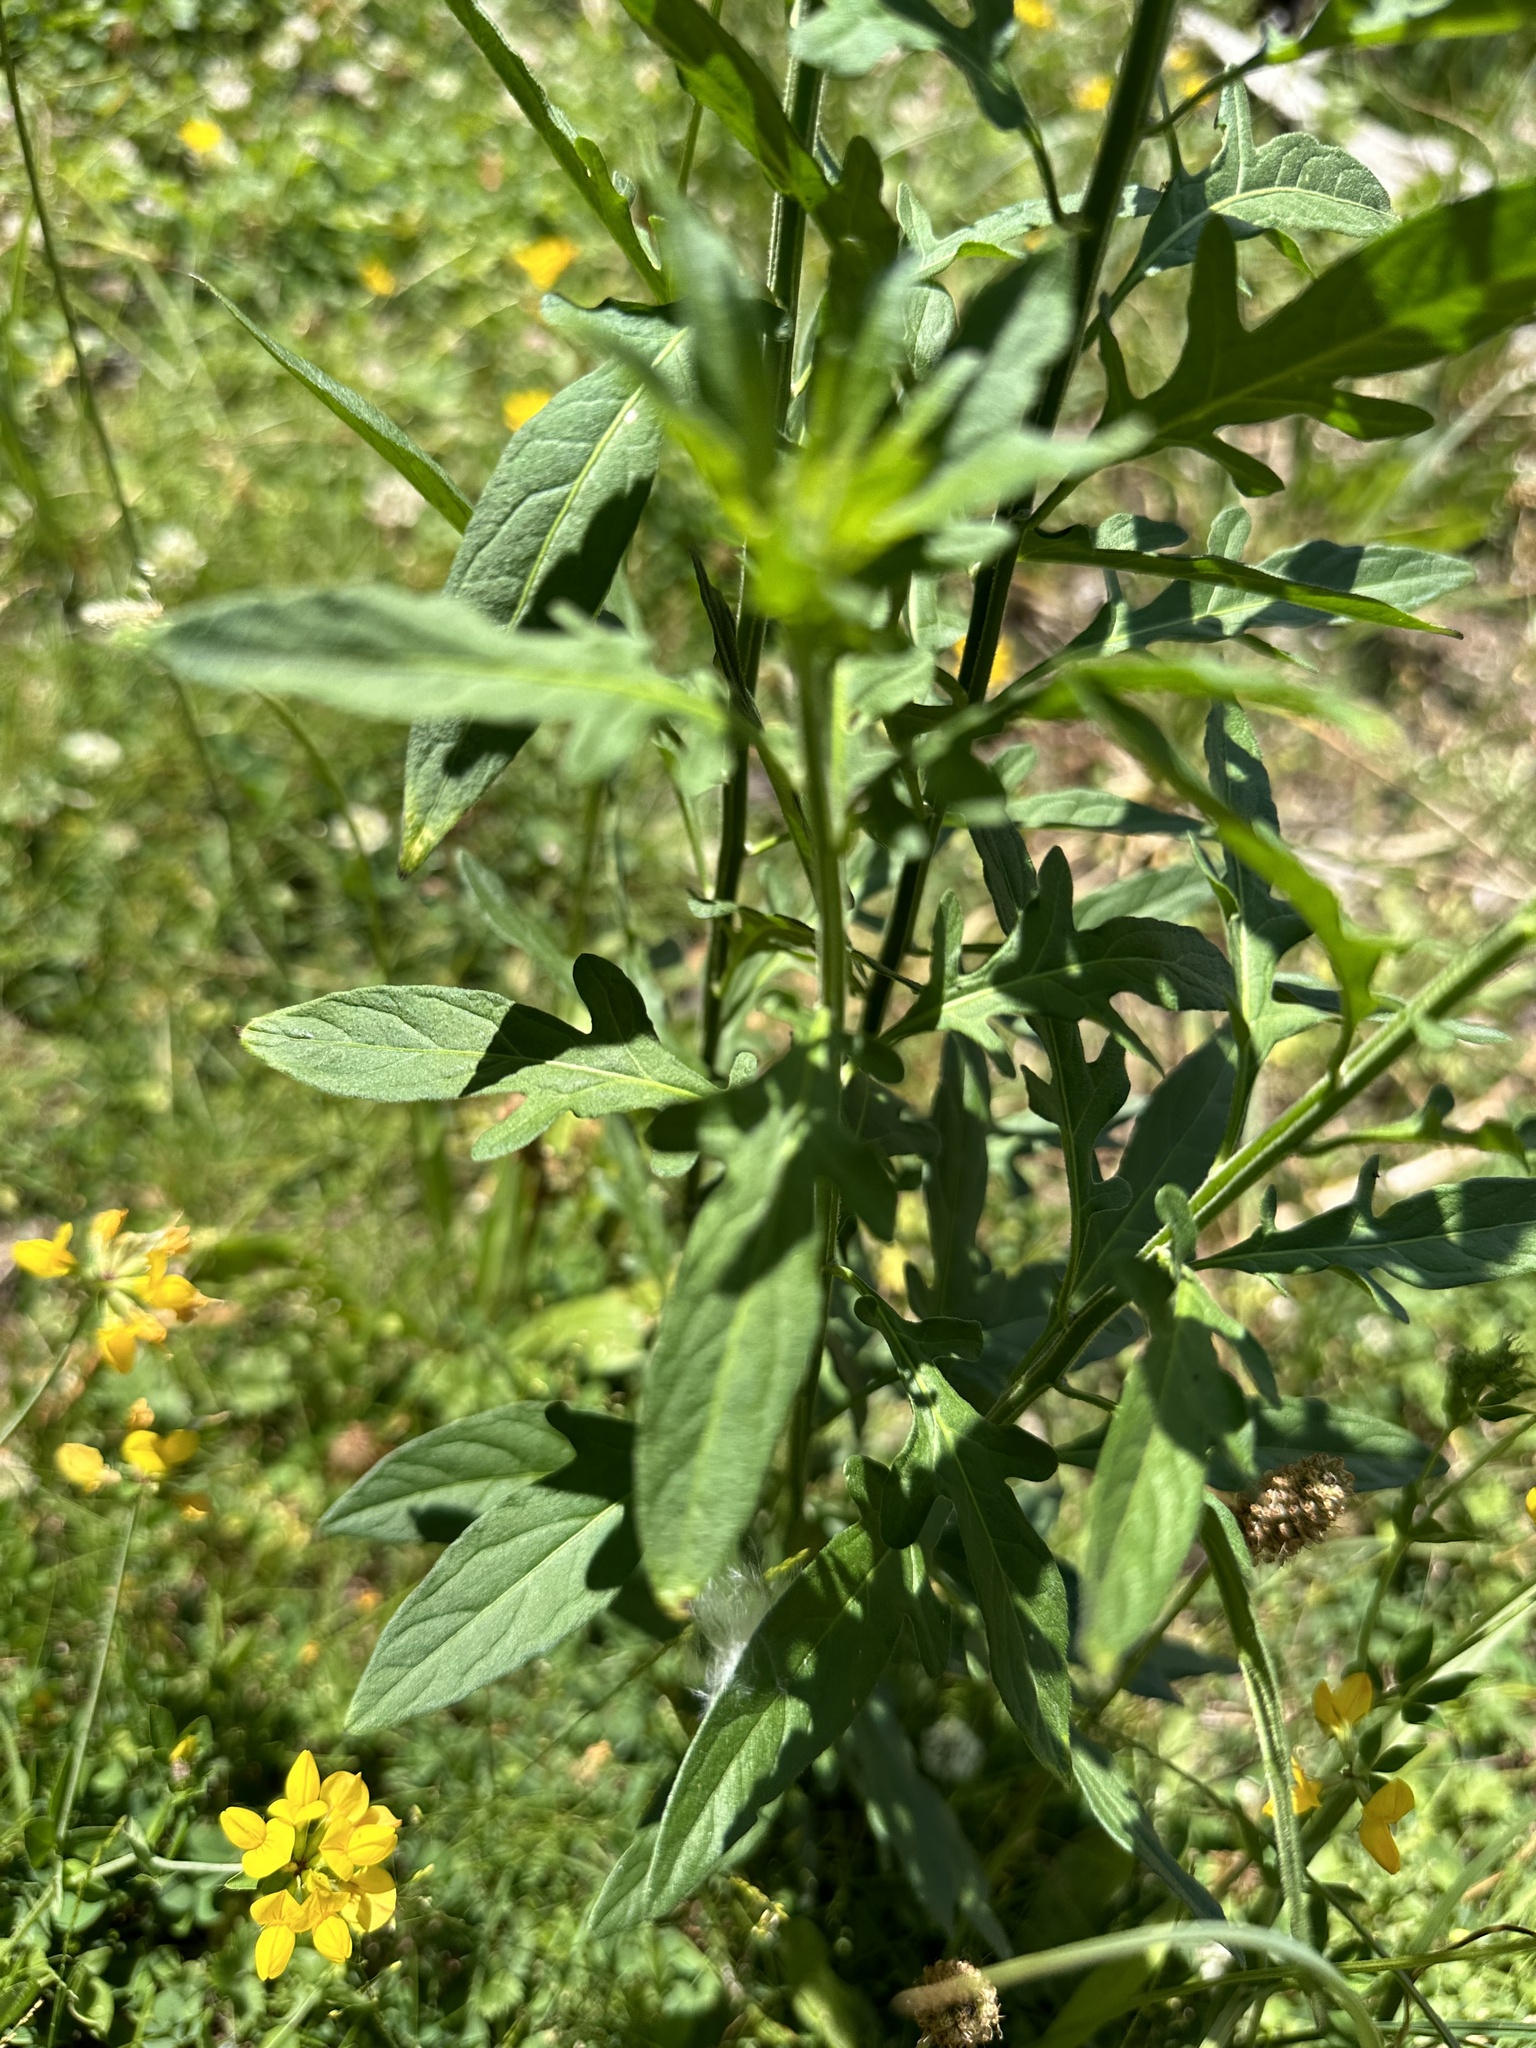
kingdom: Plantae
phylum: Tracheophyta
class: Magnoliopsida
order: Solanales
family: Solanaceae
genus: Solanum
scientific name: Solanum valdiviense
